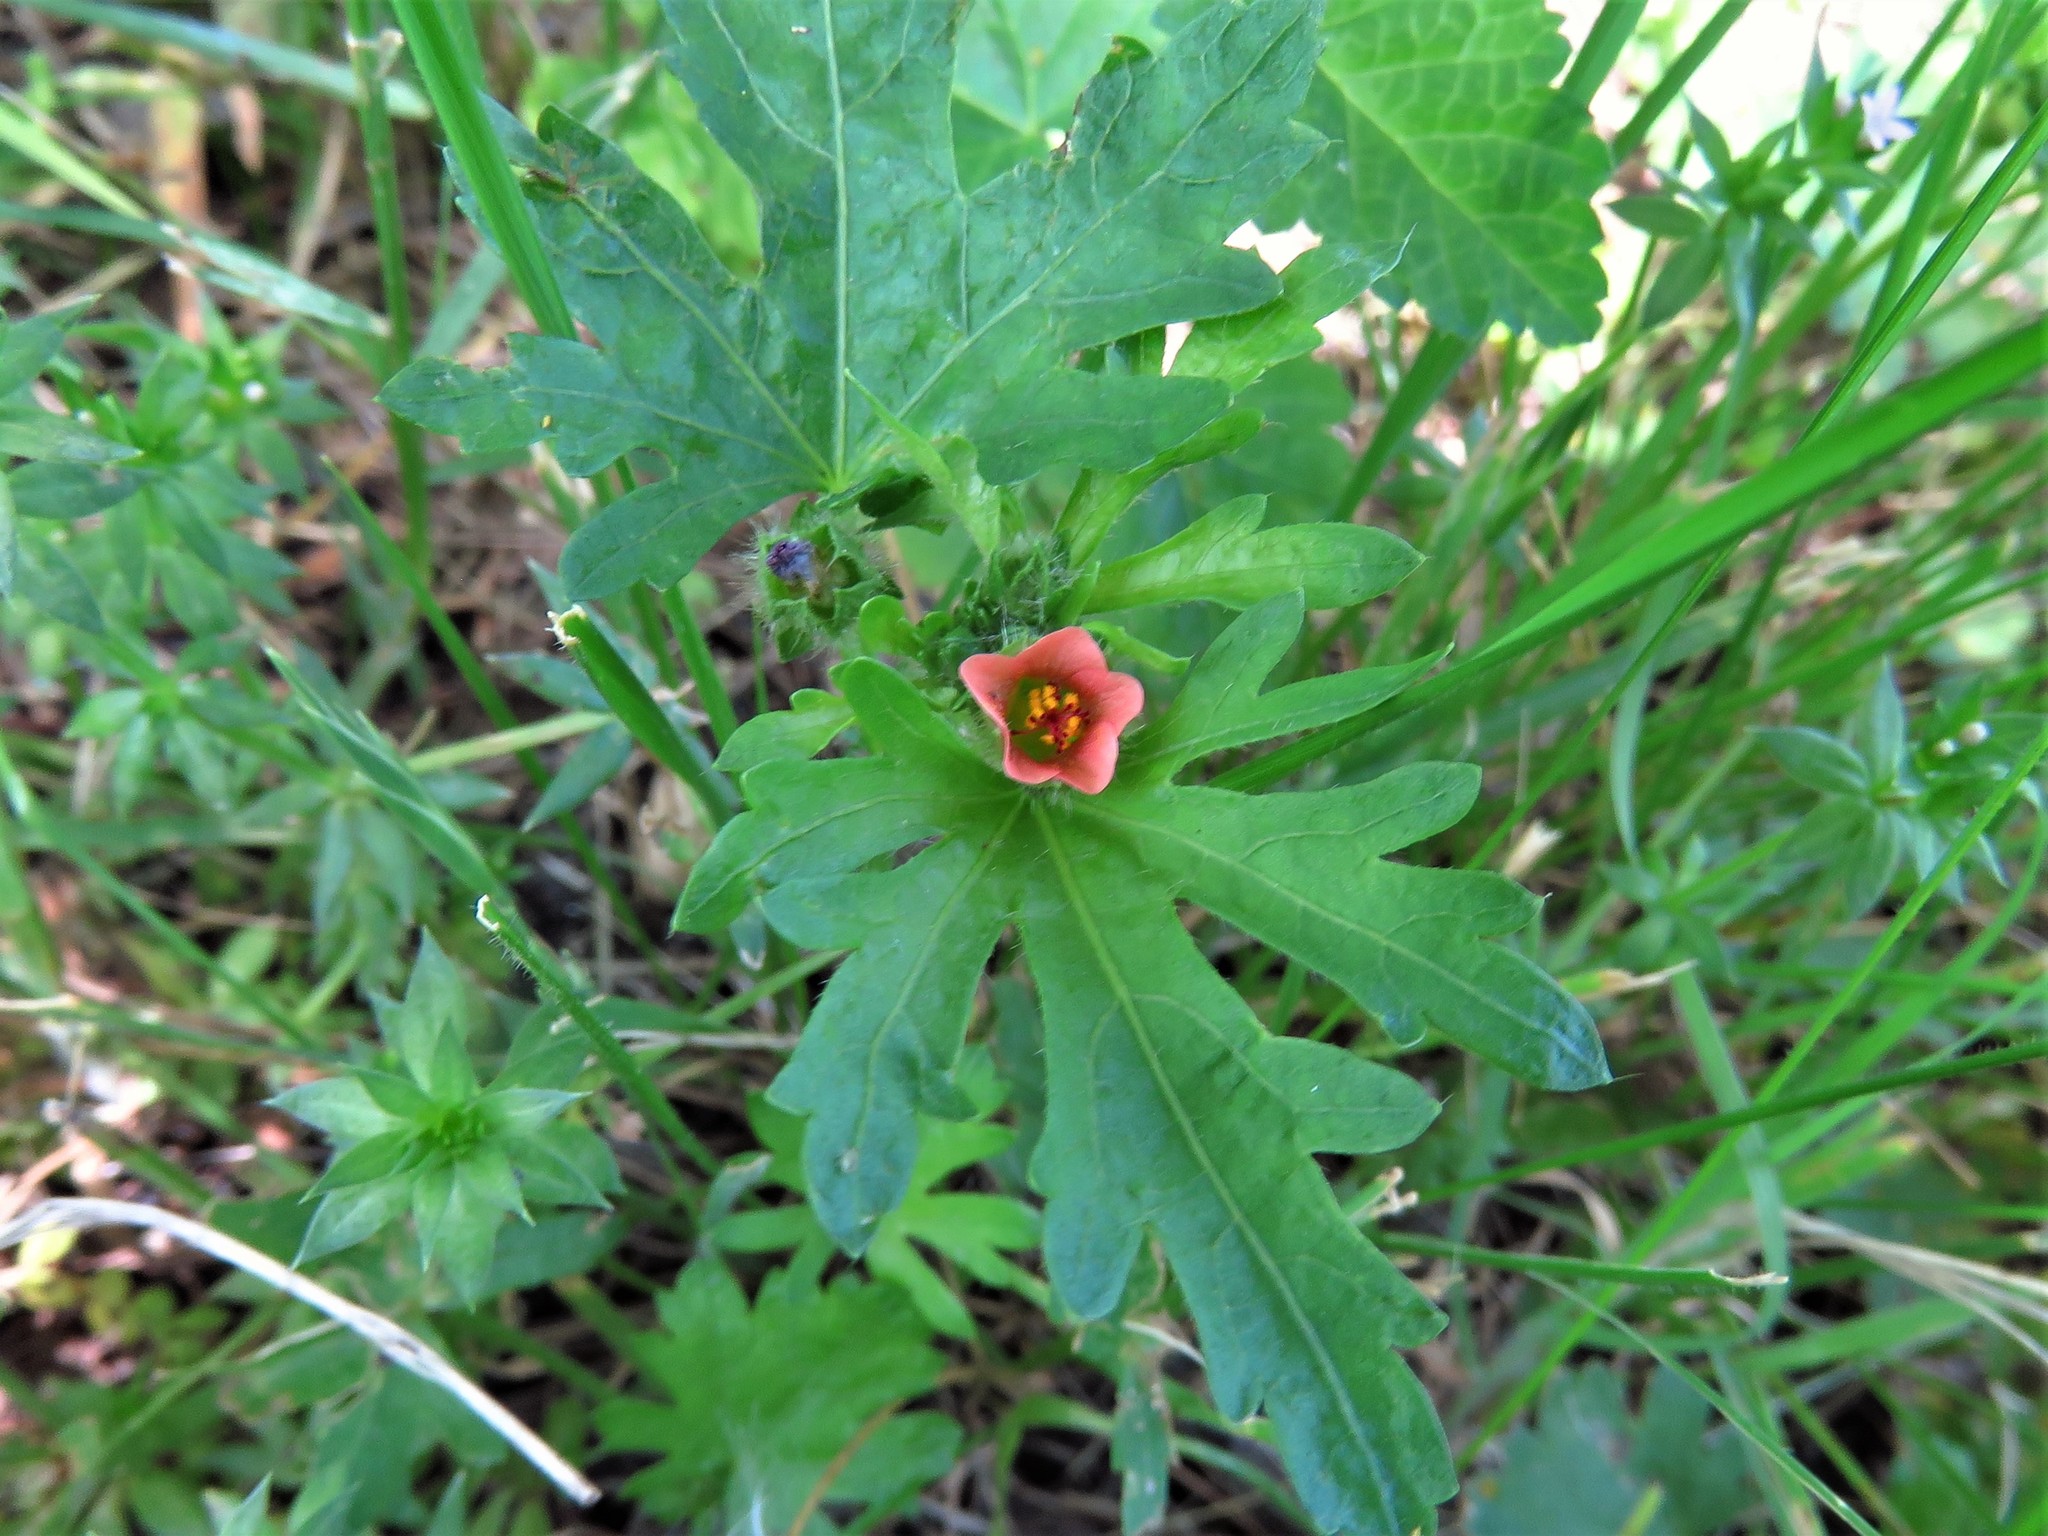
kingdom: Plantae
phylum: Tracheophyta
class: Magnoliopsida
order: Malvales
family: Malvaceae
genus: Modiola
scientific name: Modiola caroliniana
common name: Carolina bristlemallow
